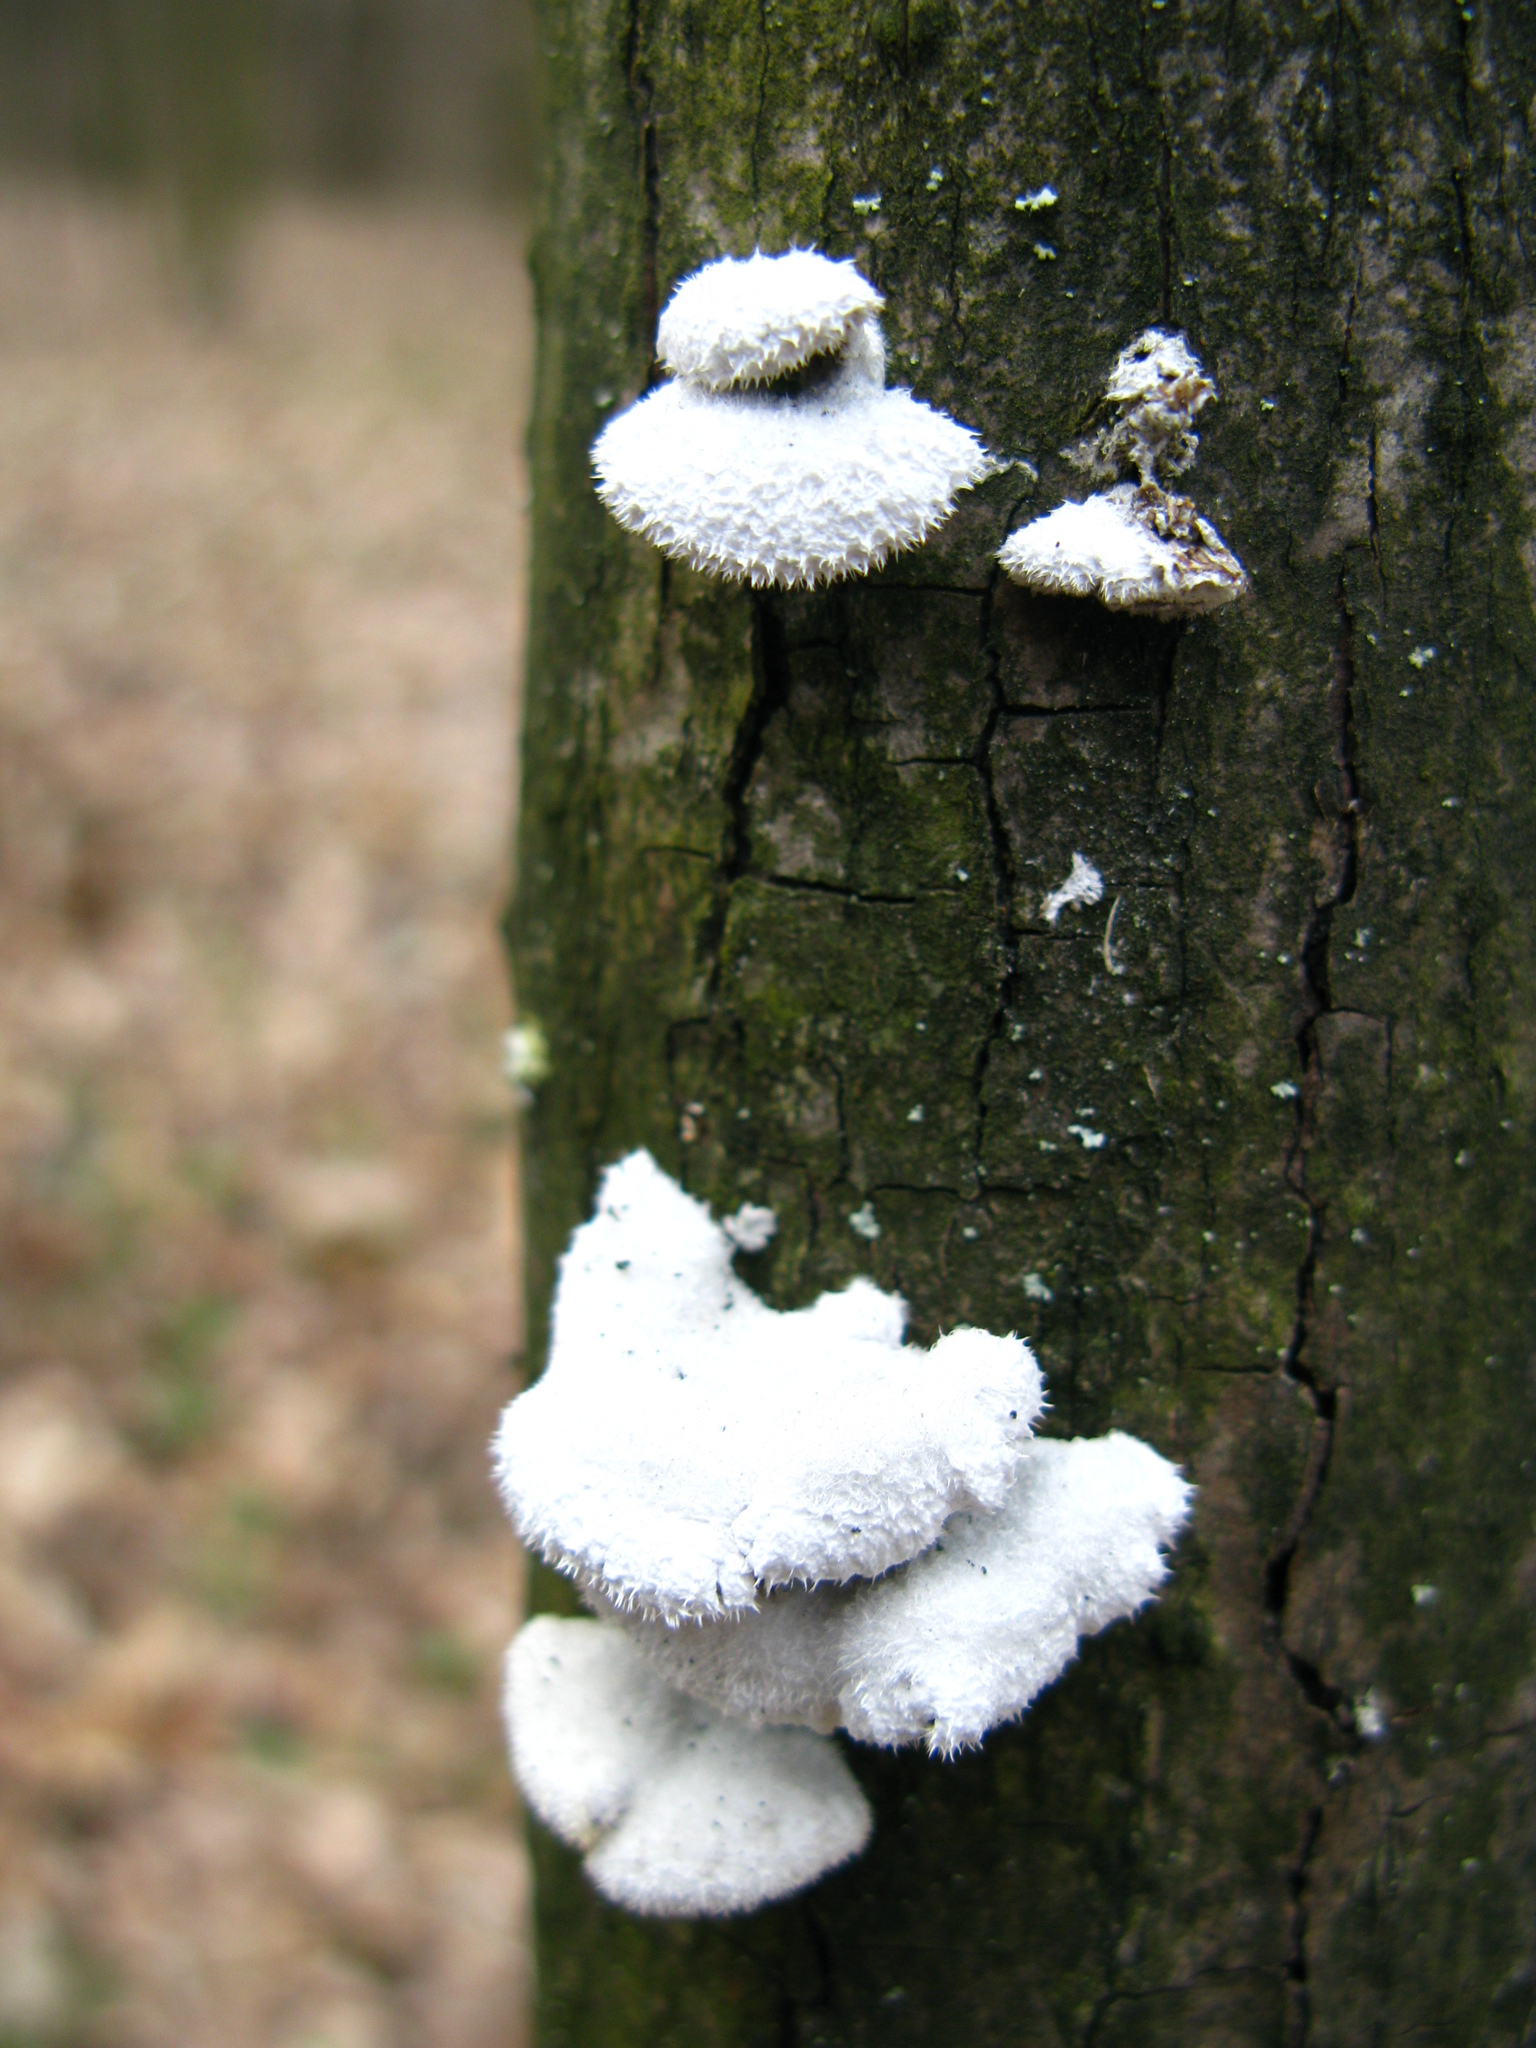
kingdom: Fungi
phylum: Basidiomycota
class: Agaricomycetes
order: Agaricales
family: Schizophyllaceae
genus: Schizophyllum
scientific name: Schizophyllum commune
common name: Common porecrust
